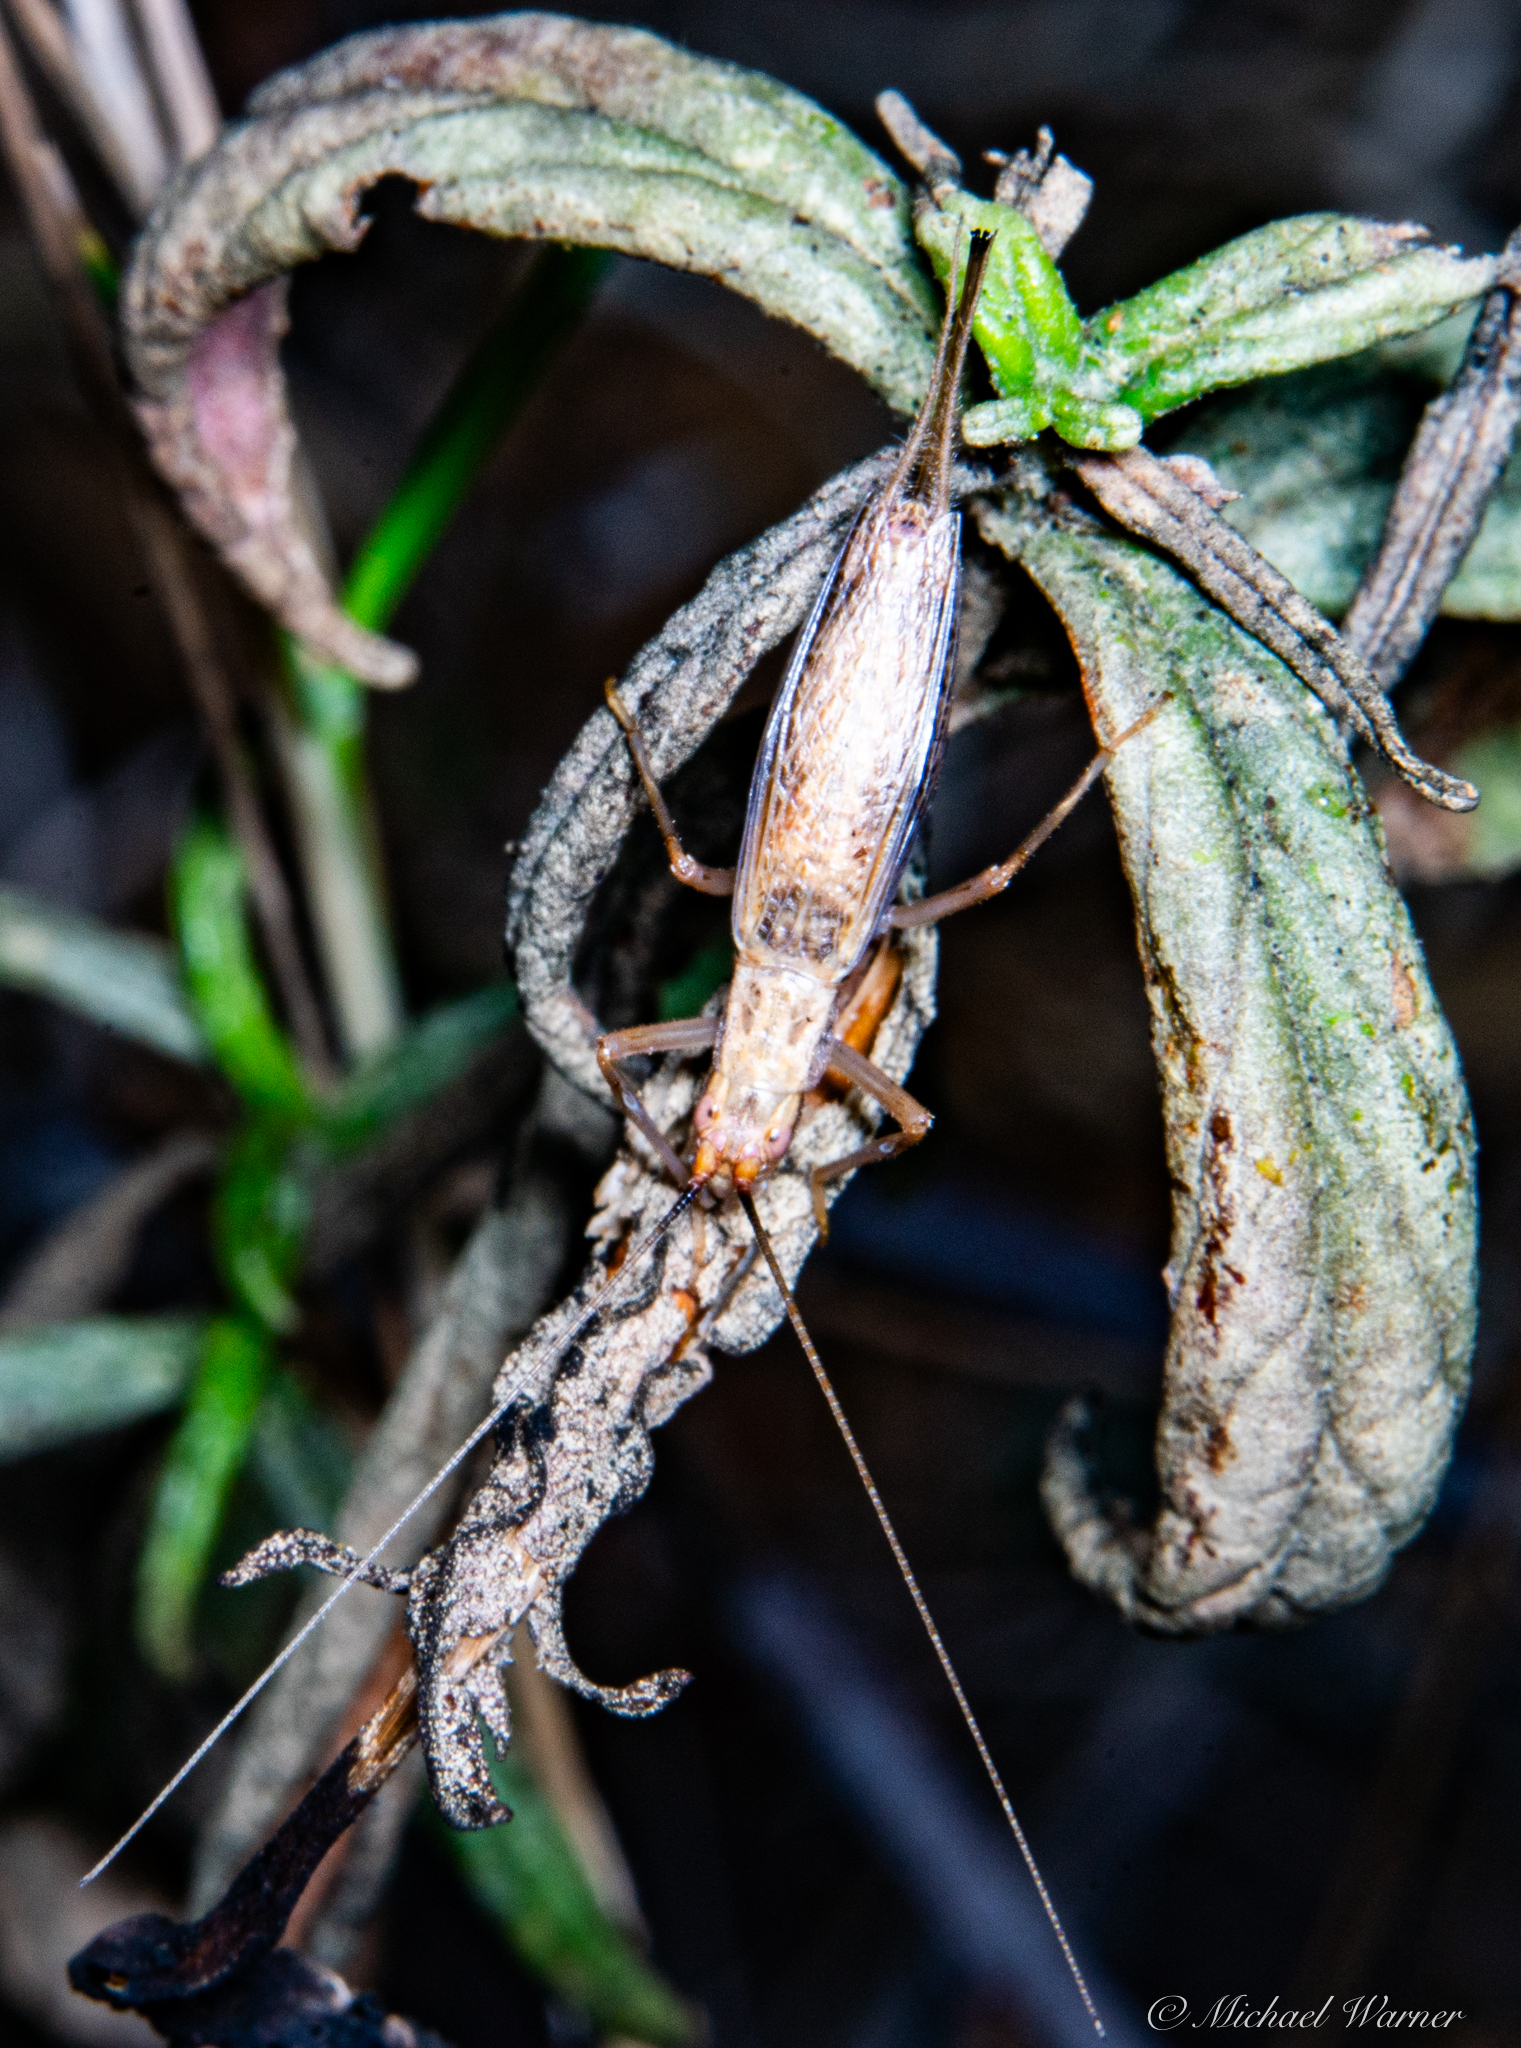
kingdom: Animalia
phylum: Arthropoda
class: Insecta
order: Orthoptera
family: Gryllidae
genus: Oecanthus
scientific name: Oecanthus californicus
